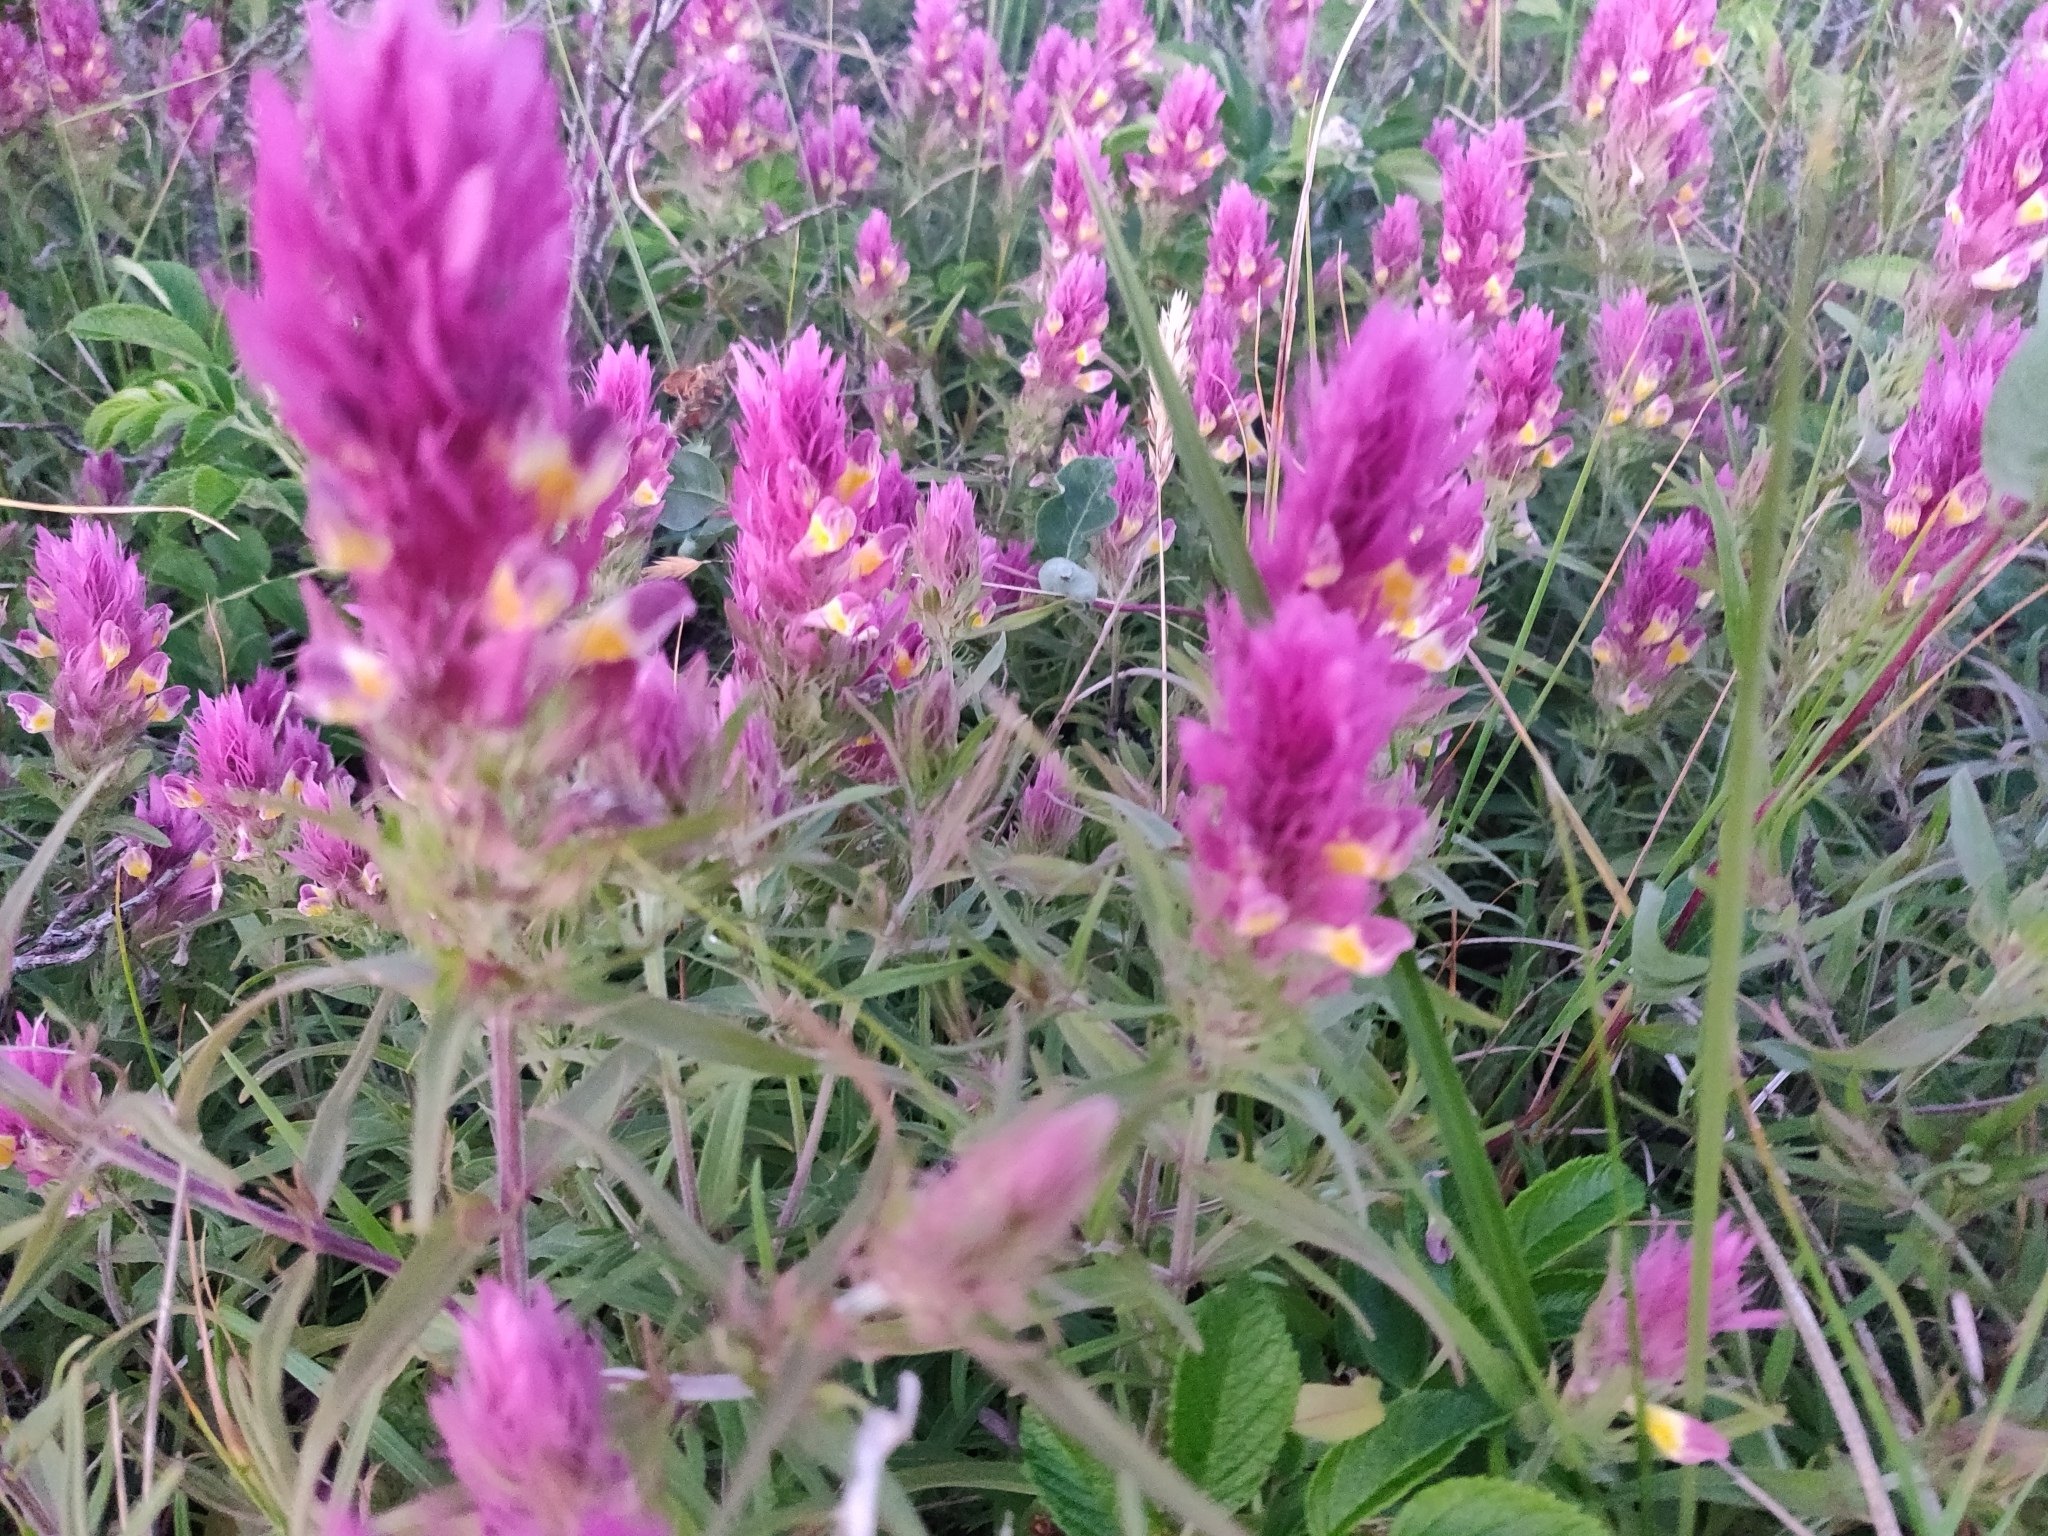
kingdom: Plantae
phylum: Tracheophyta
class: Magnoliopsida
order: Lamiales
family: Orobanchaceae
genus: Melampyrum
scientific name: Melampyrum arvense
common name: Field cow-wheat
